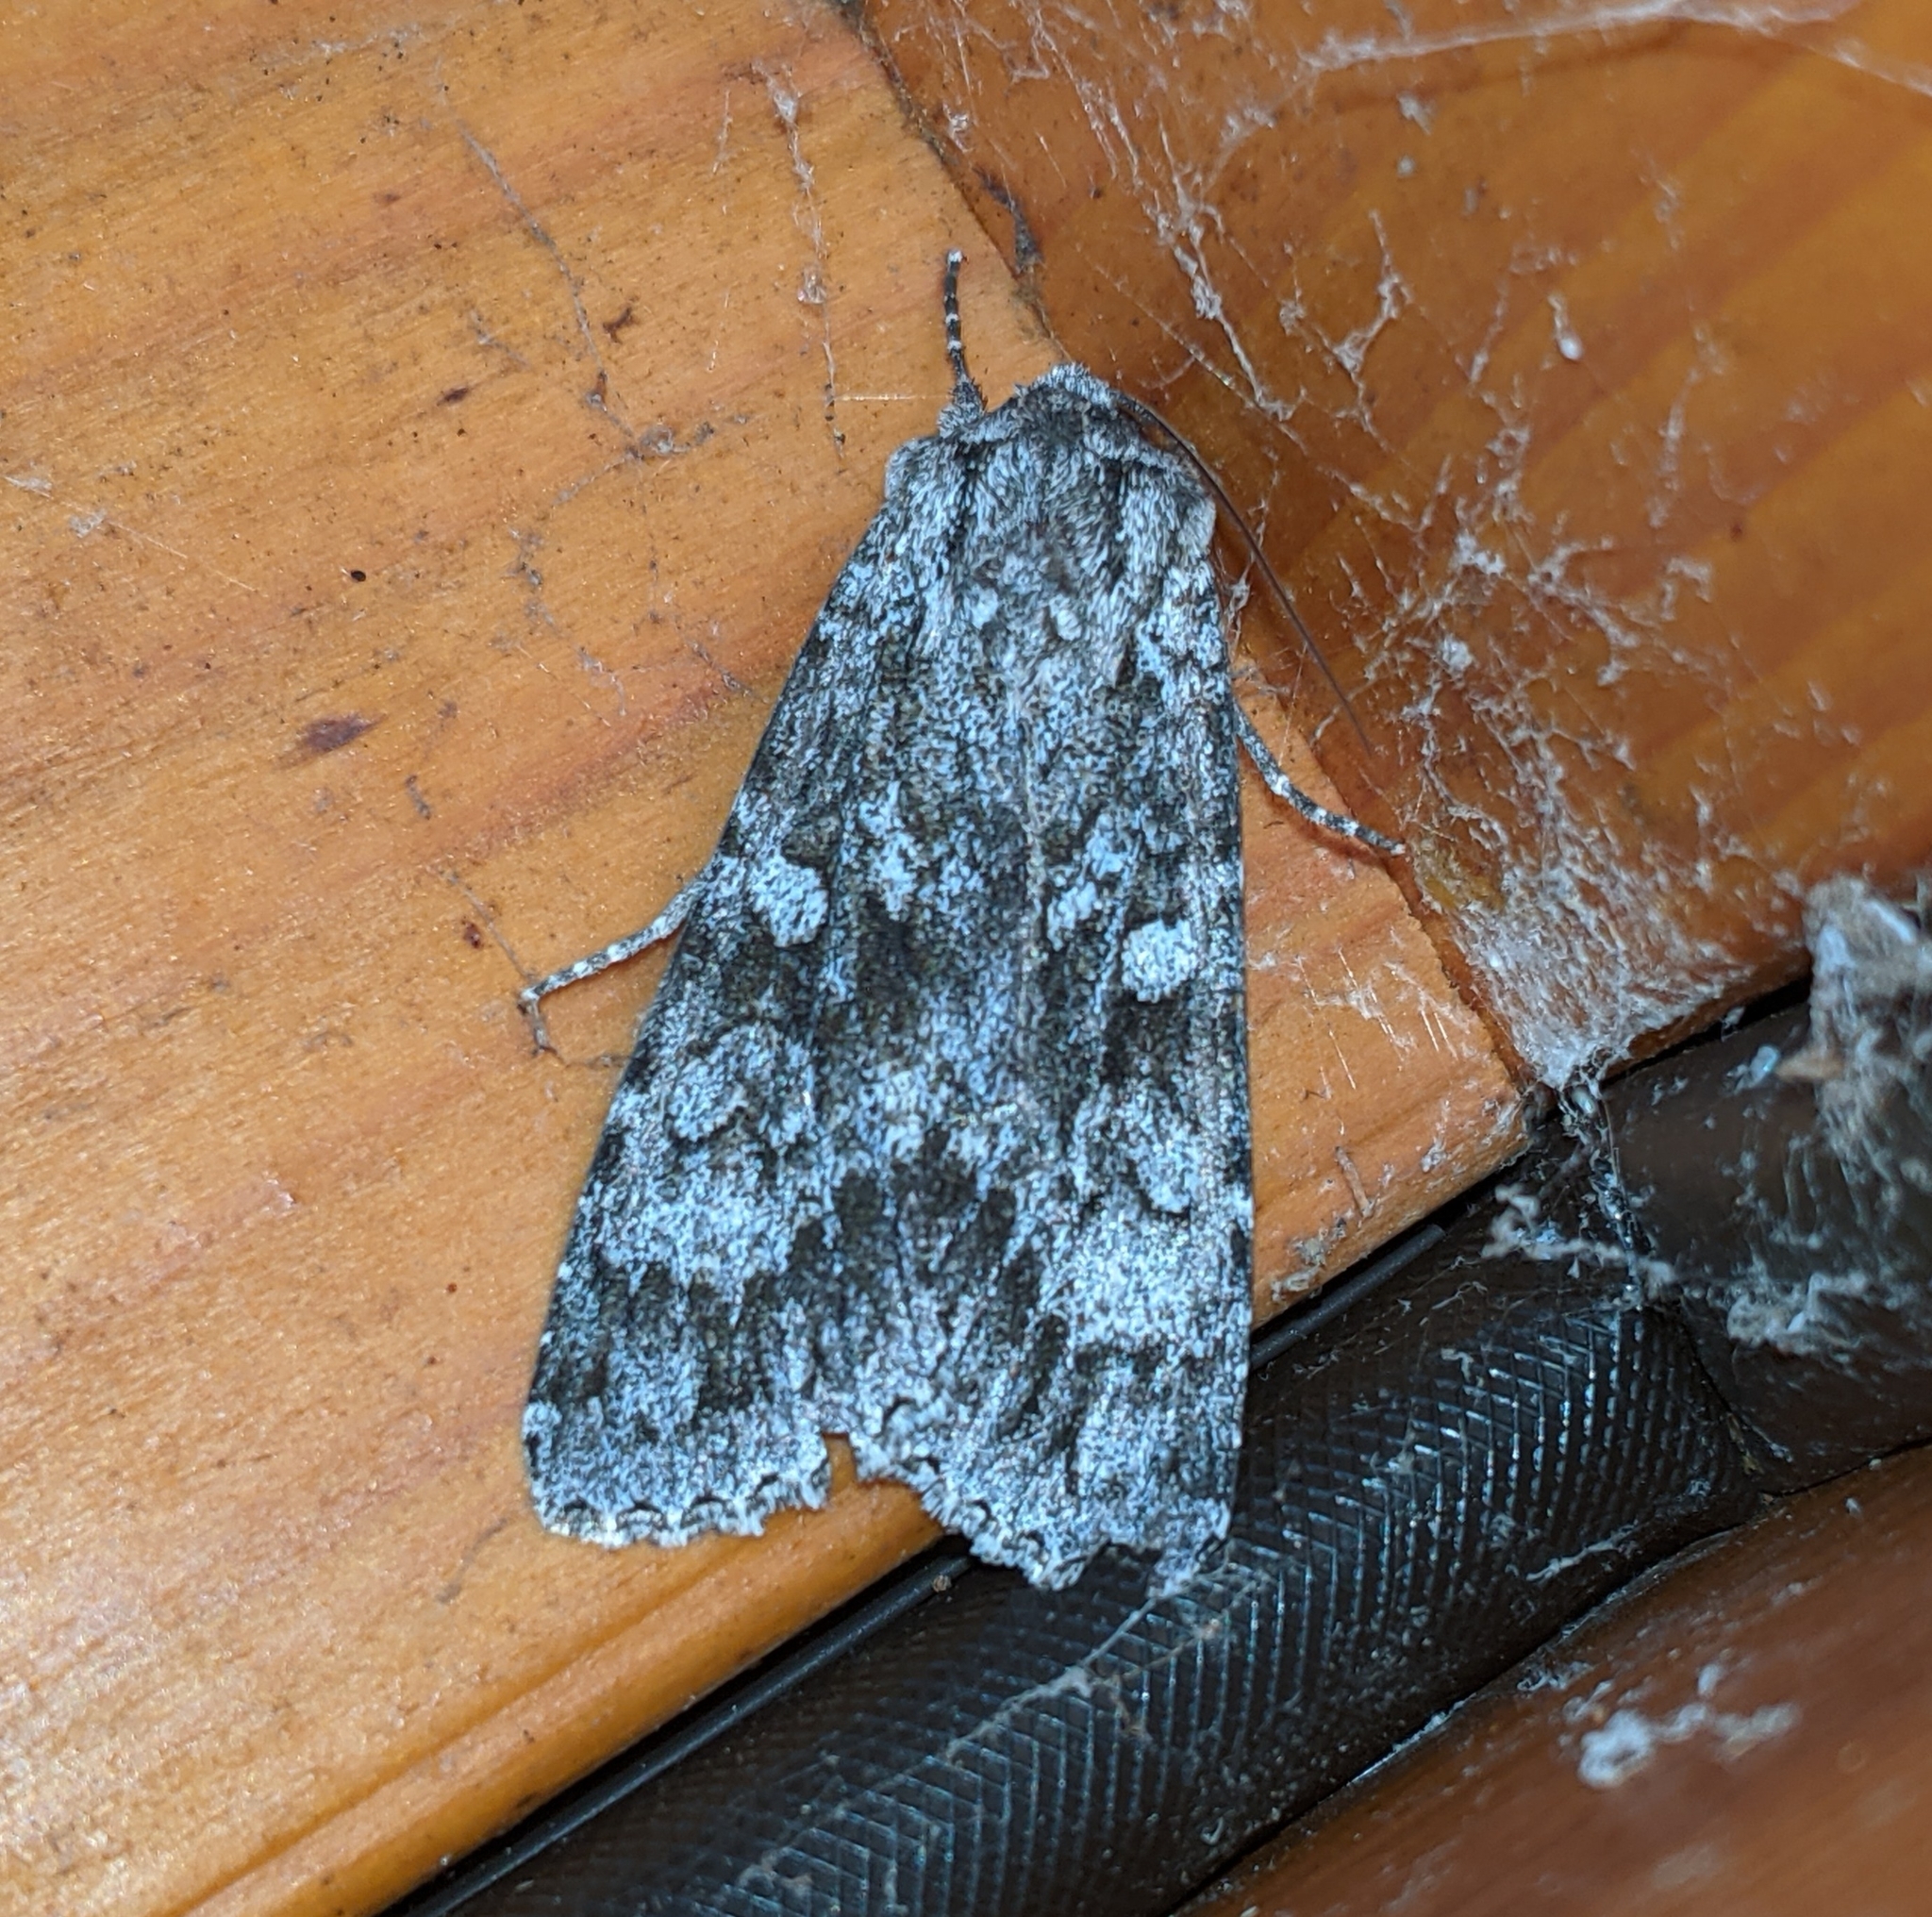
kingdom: Animalia
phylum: Arthropoda
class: Insecta
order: Lepidoptera
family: Noctuidae
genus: Eurois
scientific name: Eurois occulta
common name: Great brocade
